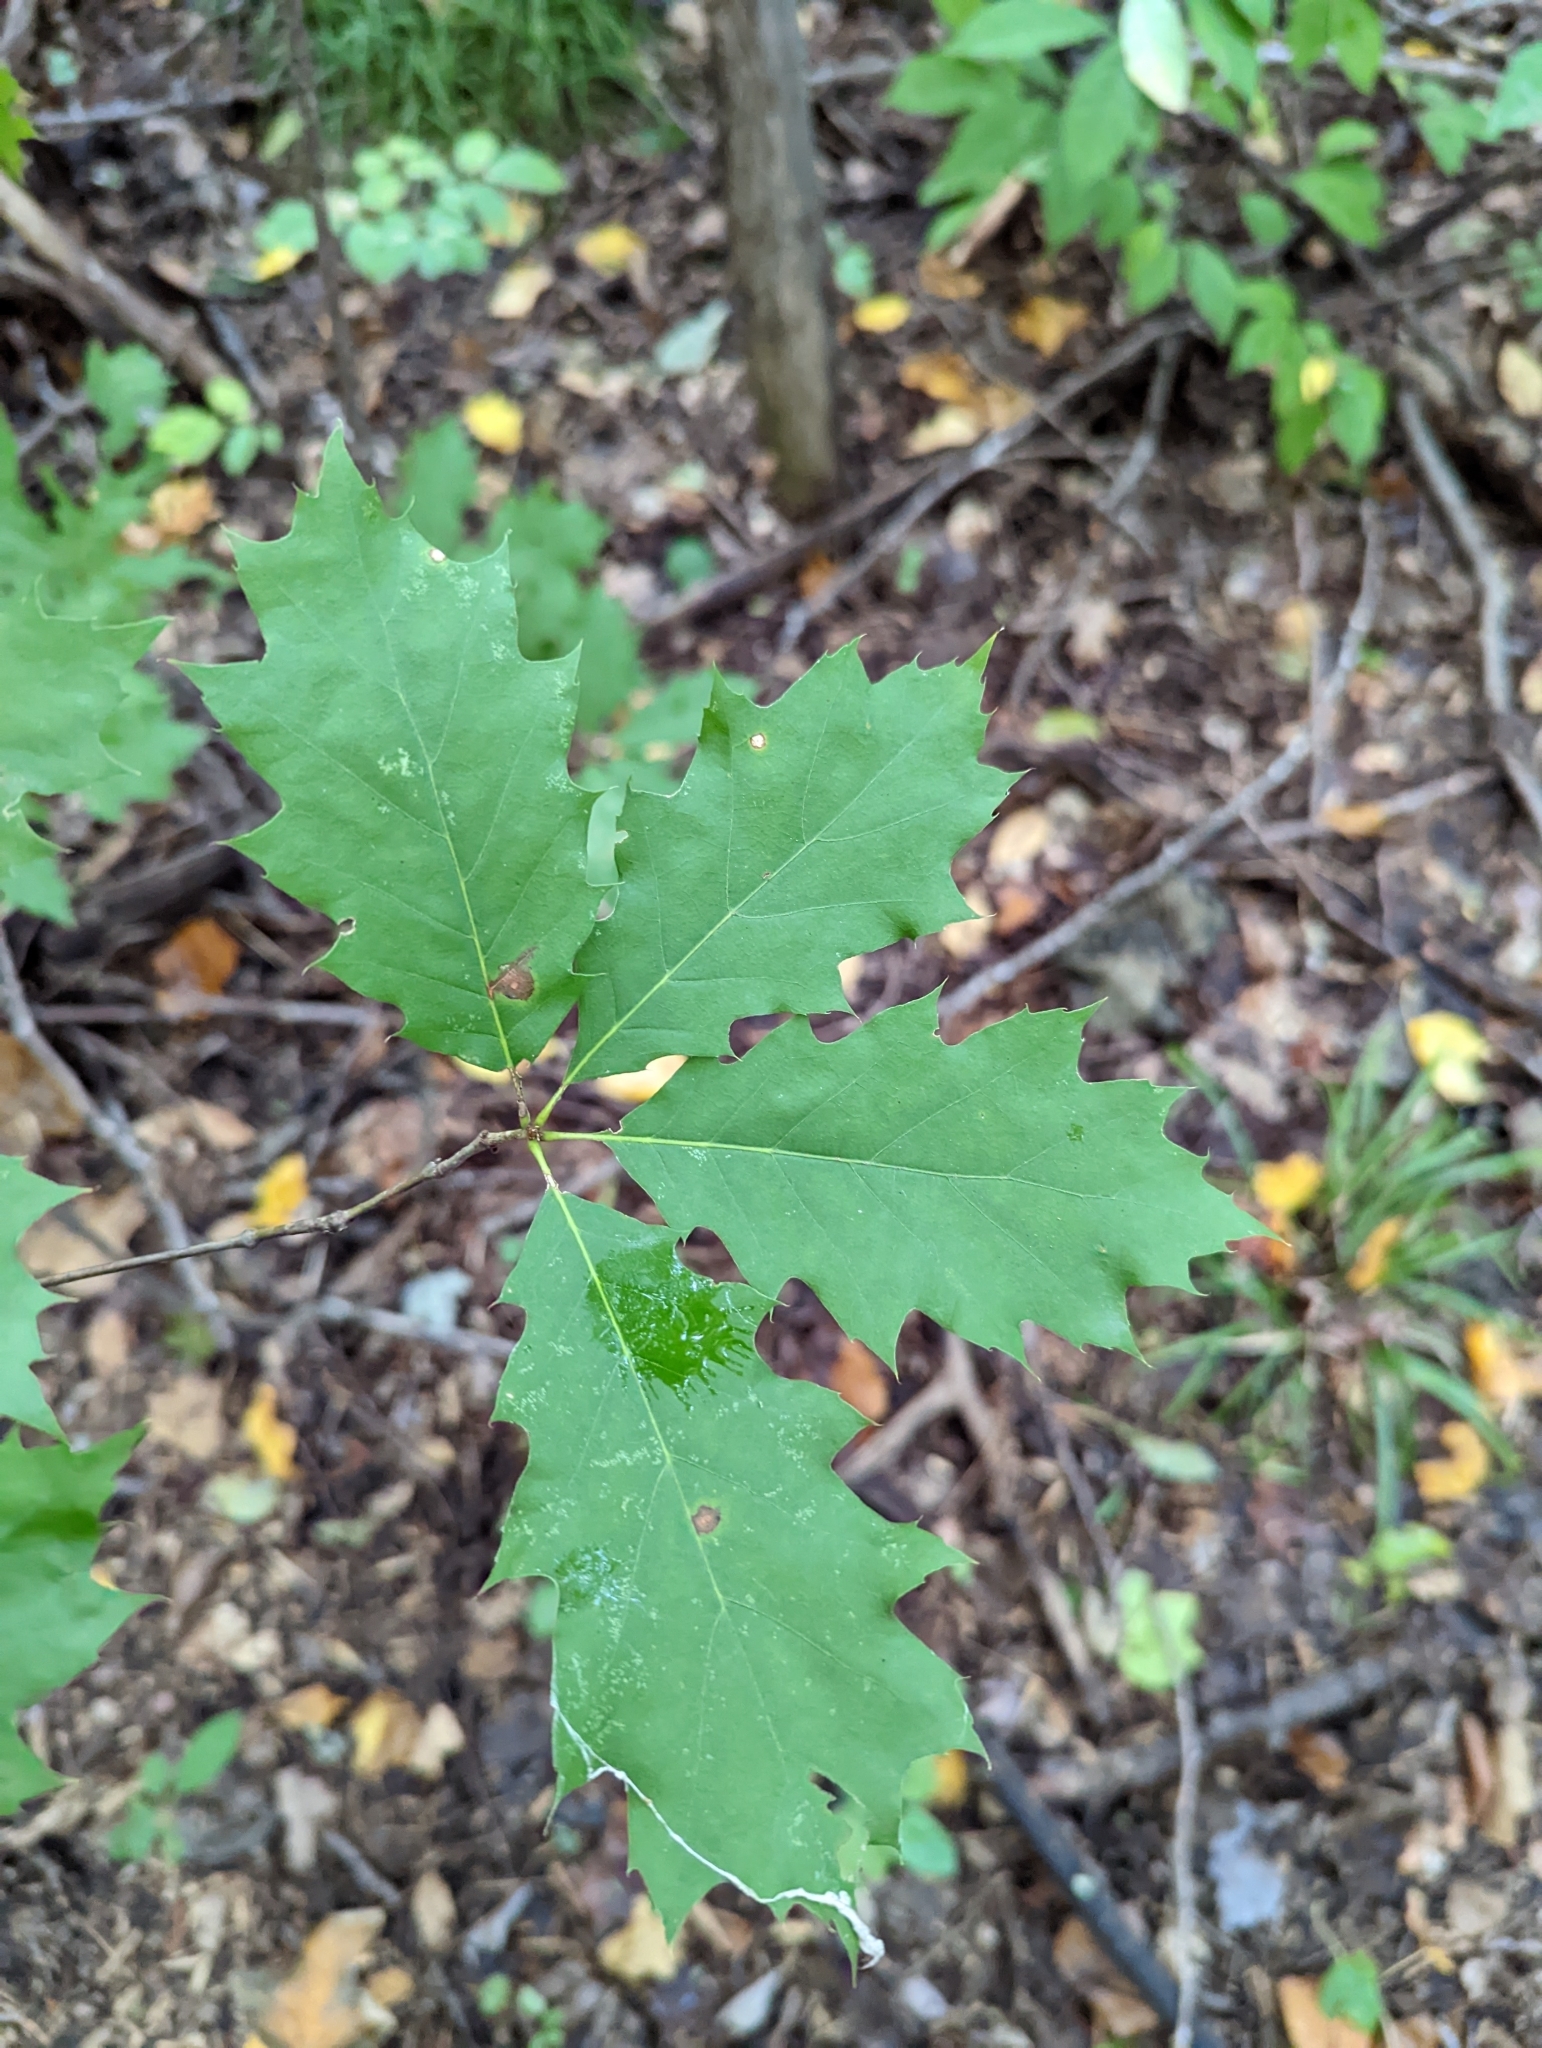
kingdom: Plantae
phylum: Tracheophyta
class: Magnoliopsida
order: Fagales
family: Fagaceae
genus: Quercus
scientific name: Quercus rubra
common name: Red oak
